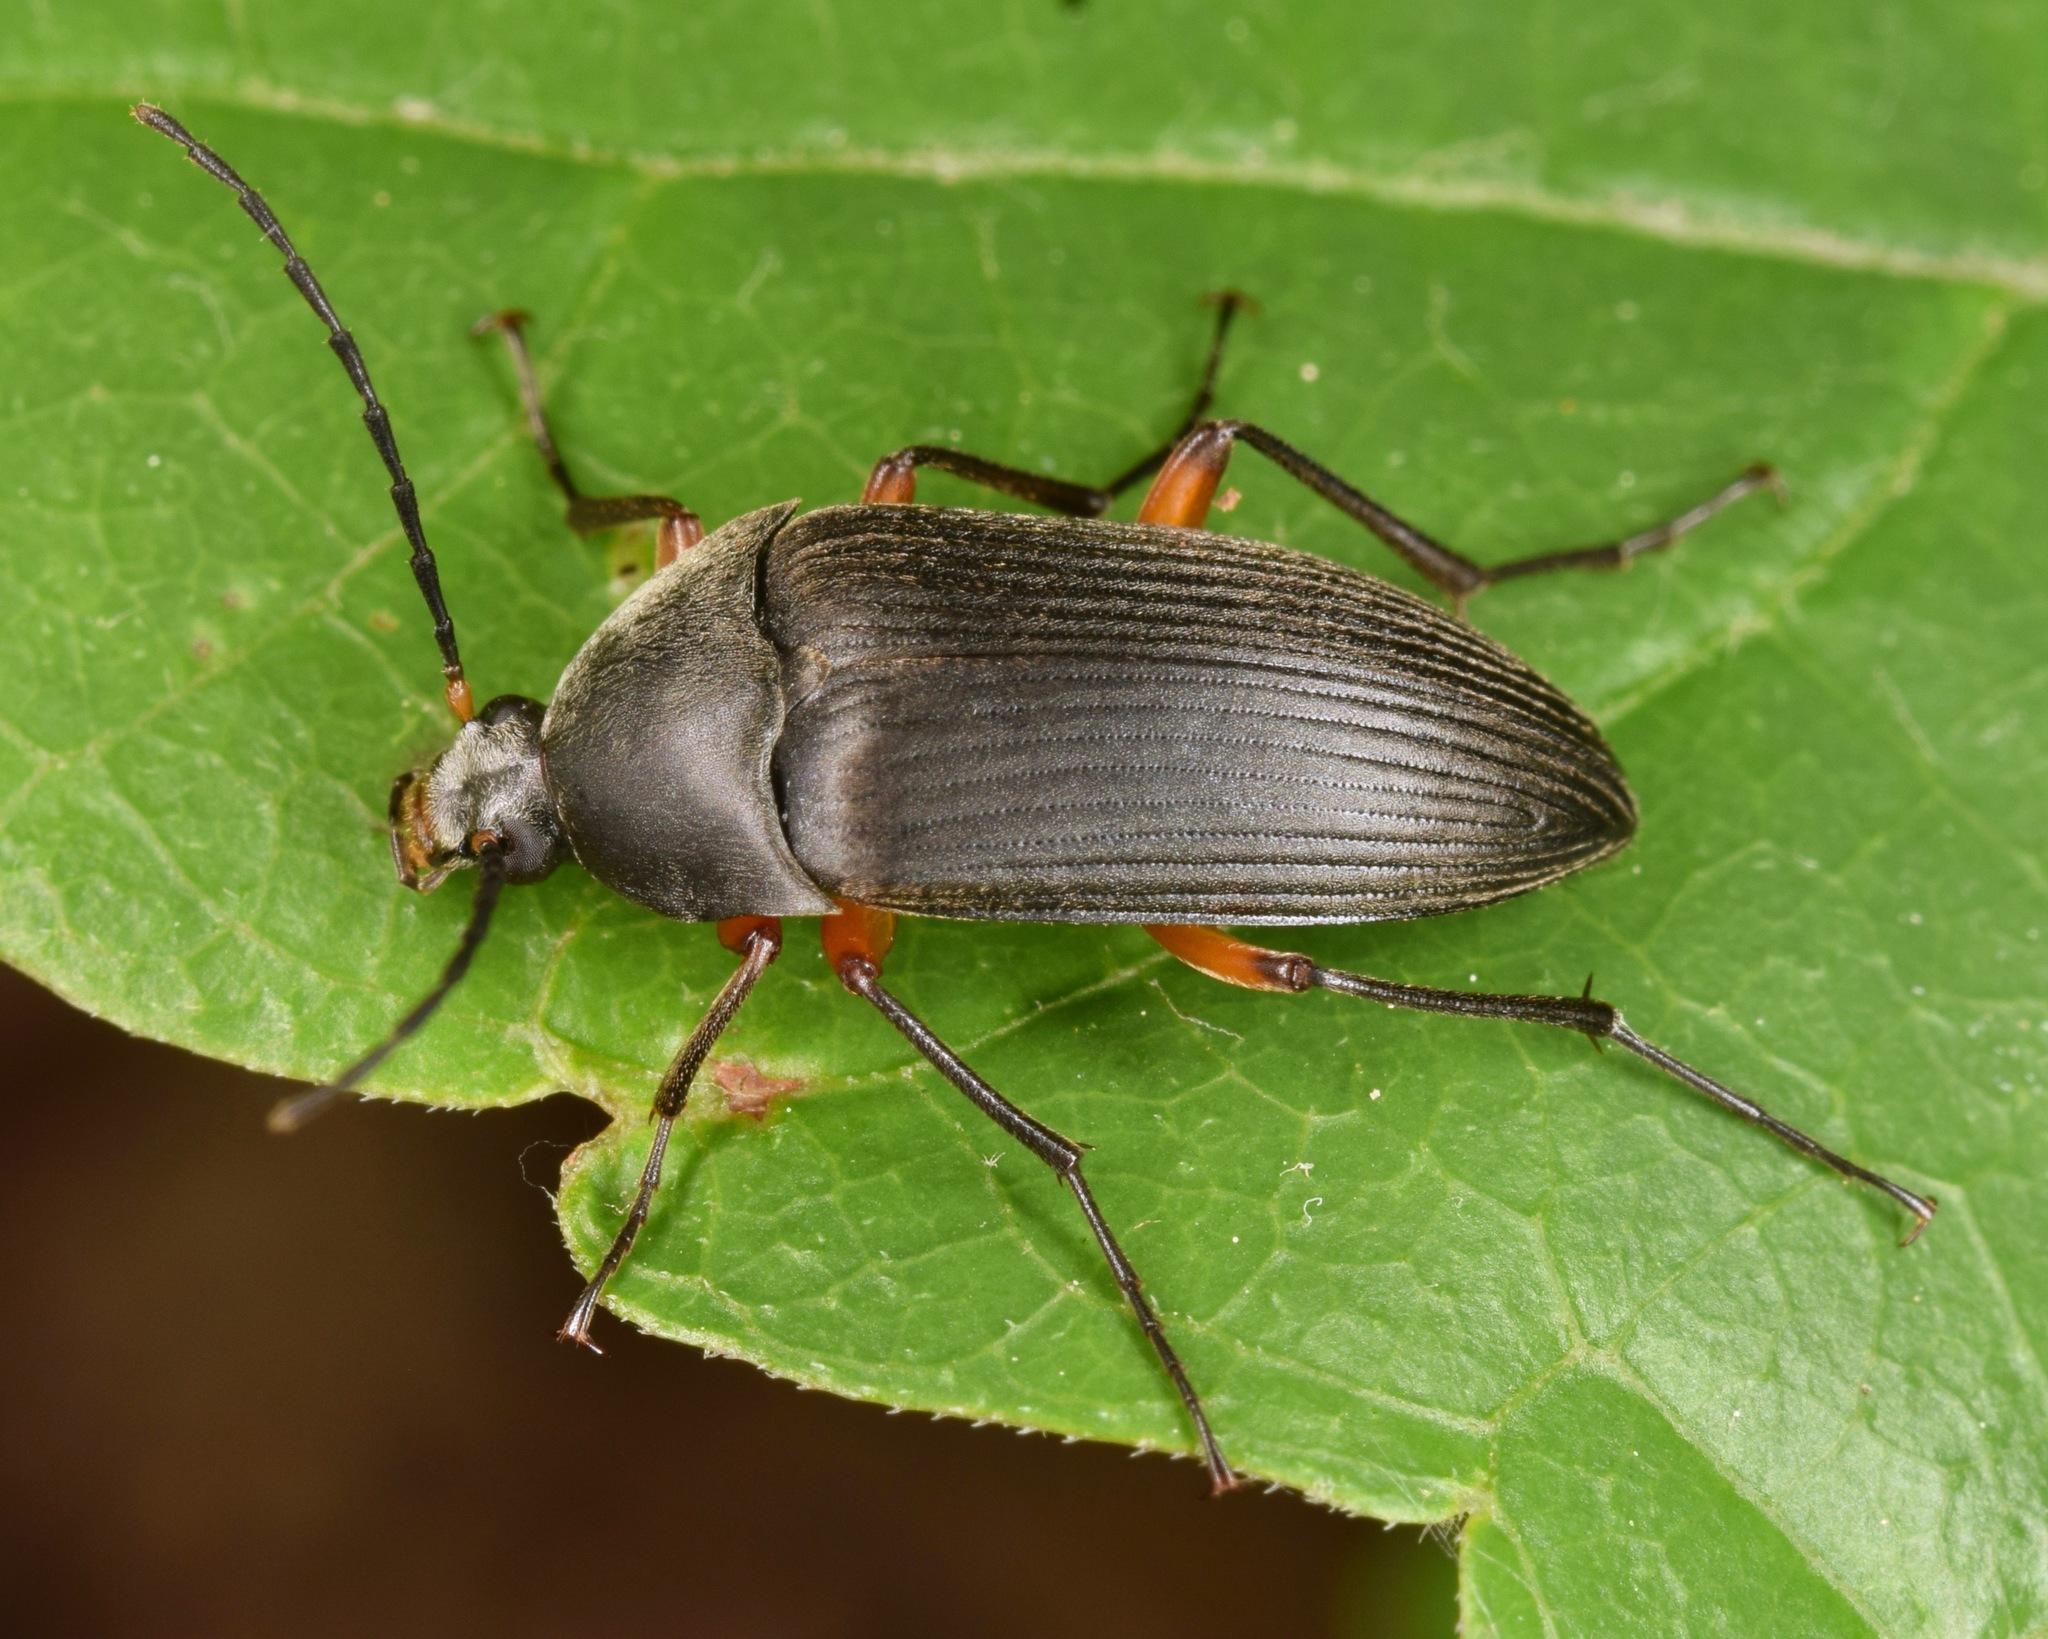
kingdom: Animalia
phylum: Arthropoda
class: Insecta
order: Coleoptera
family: Tenebrionidae
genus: Androchirus
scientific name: Androchirus femoralis
